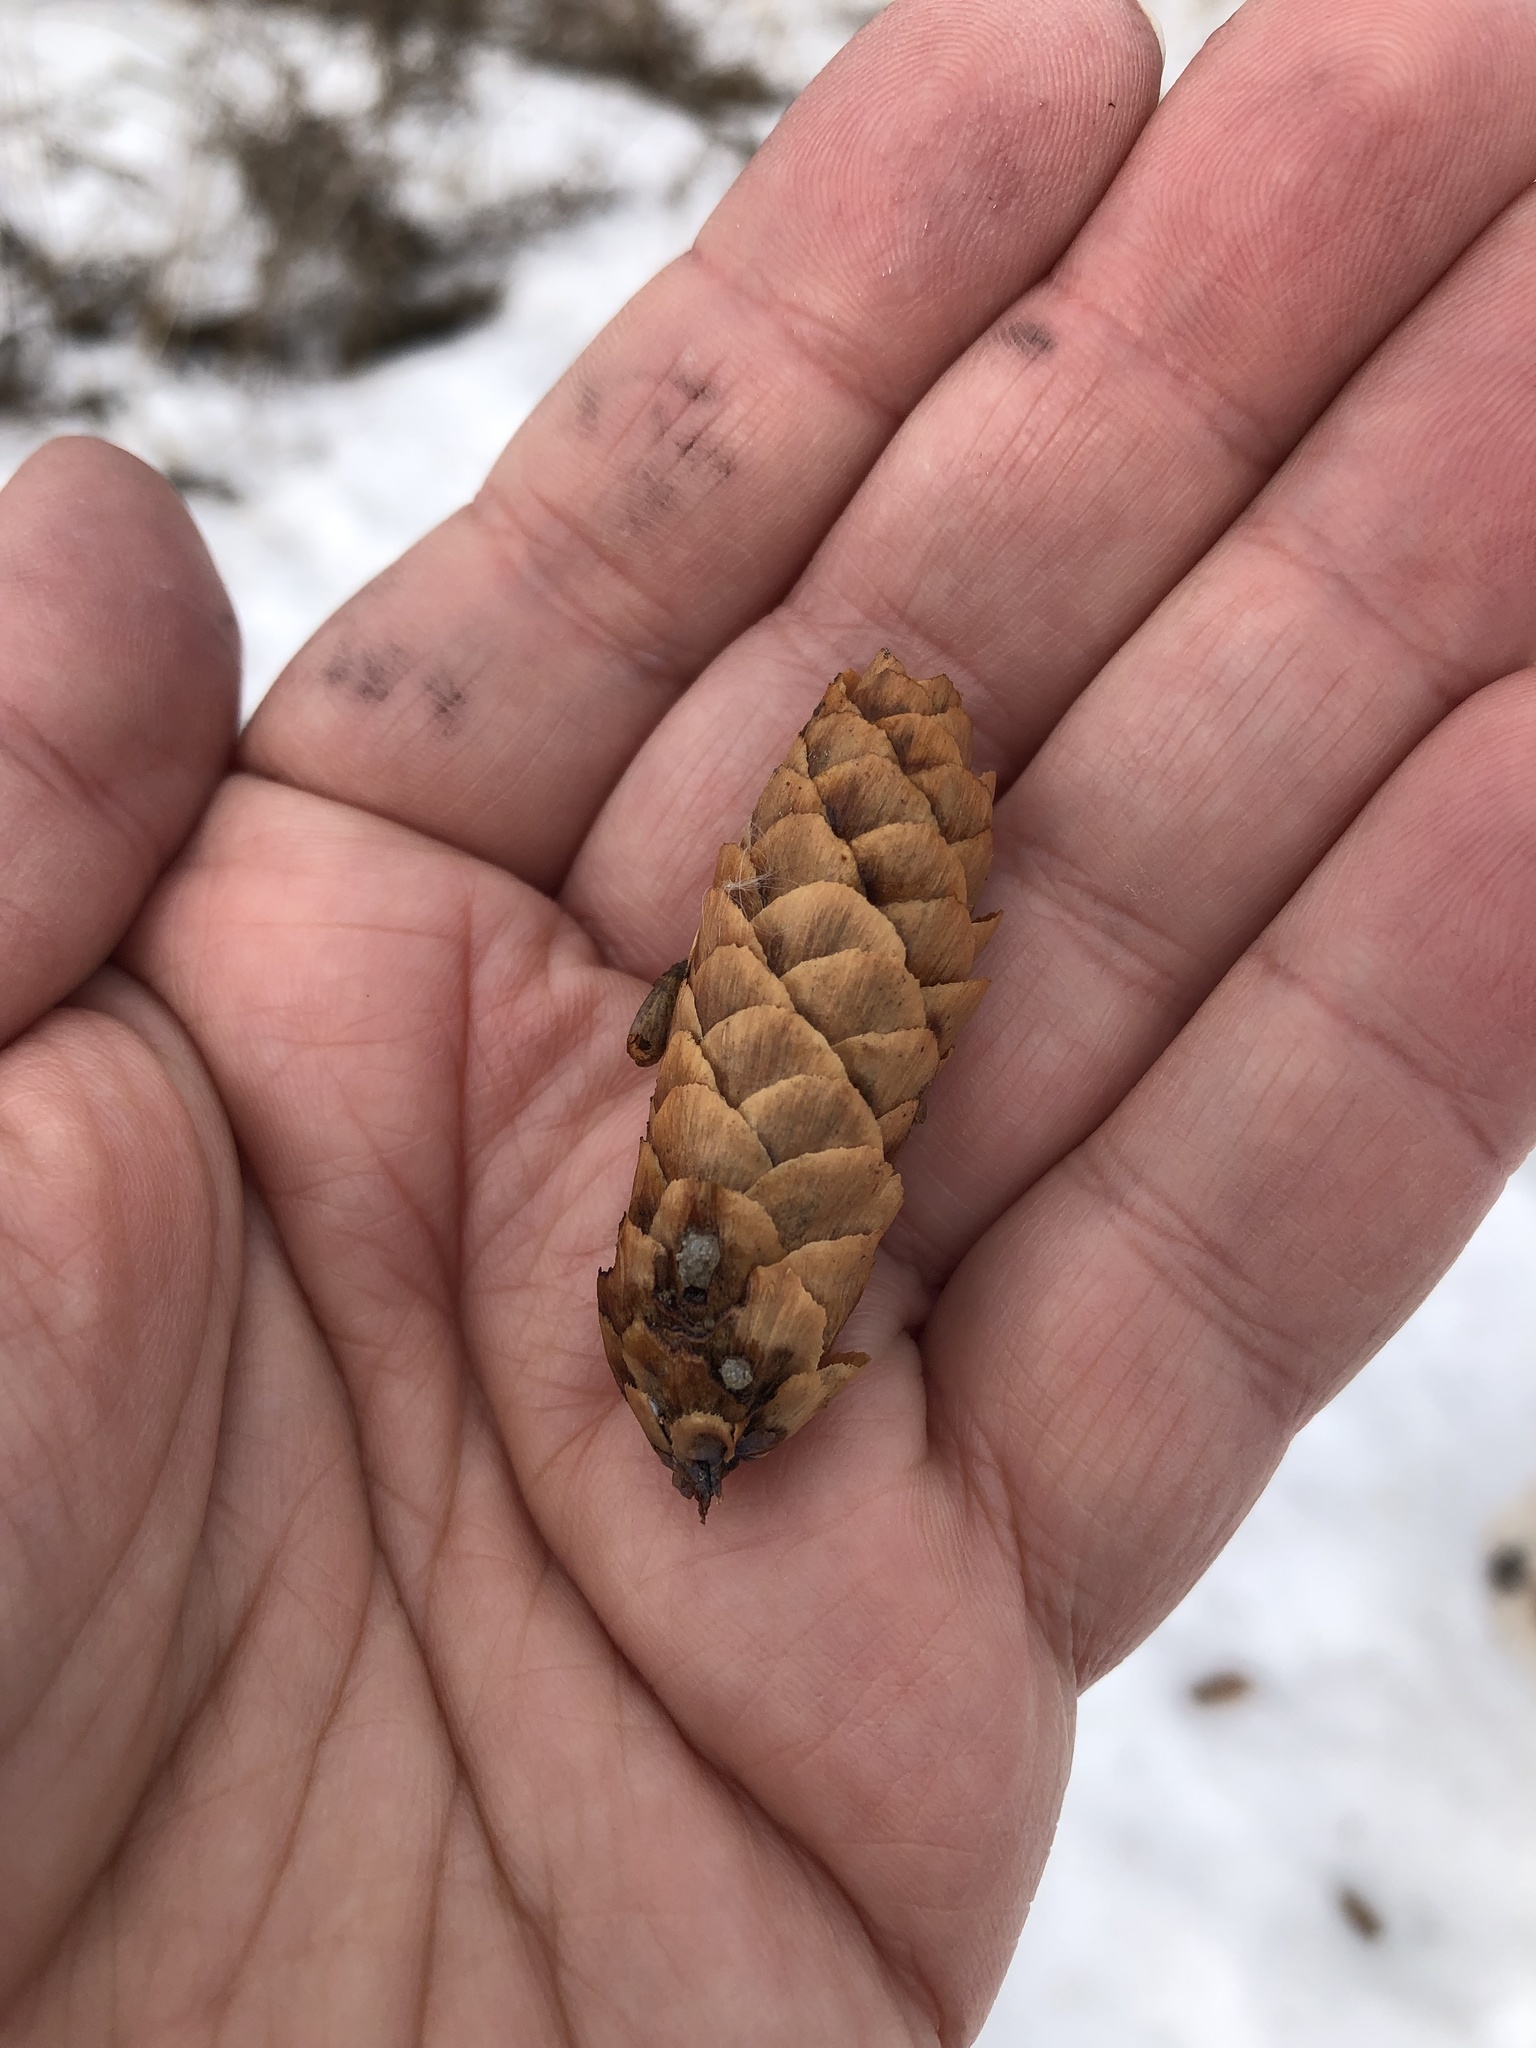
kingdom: Plantae
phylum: Tracheophyta
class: Pinopsida
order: Pinales
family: Pinaceae
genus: Picea
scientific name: Picea glauca
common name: White spruce
